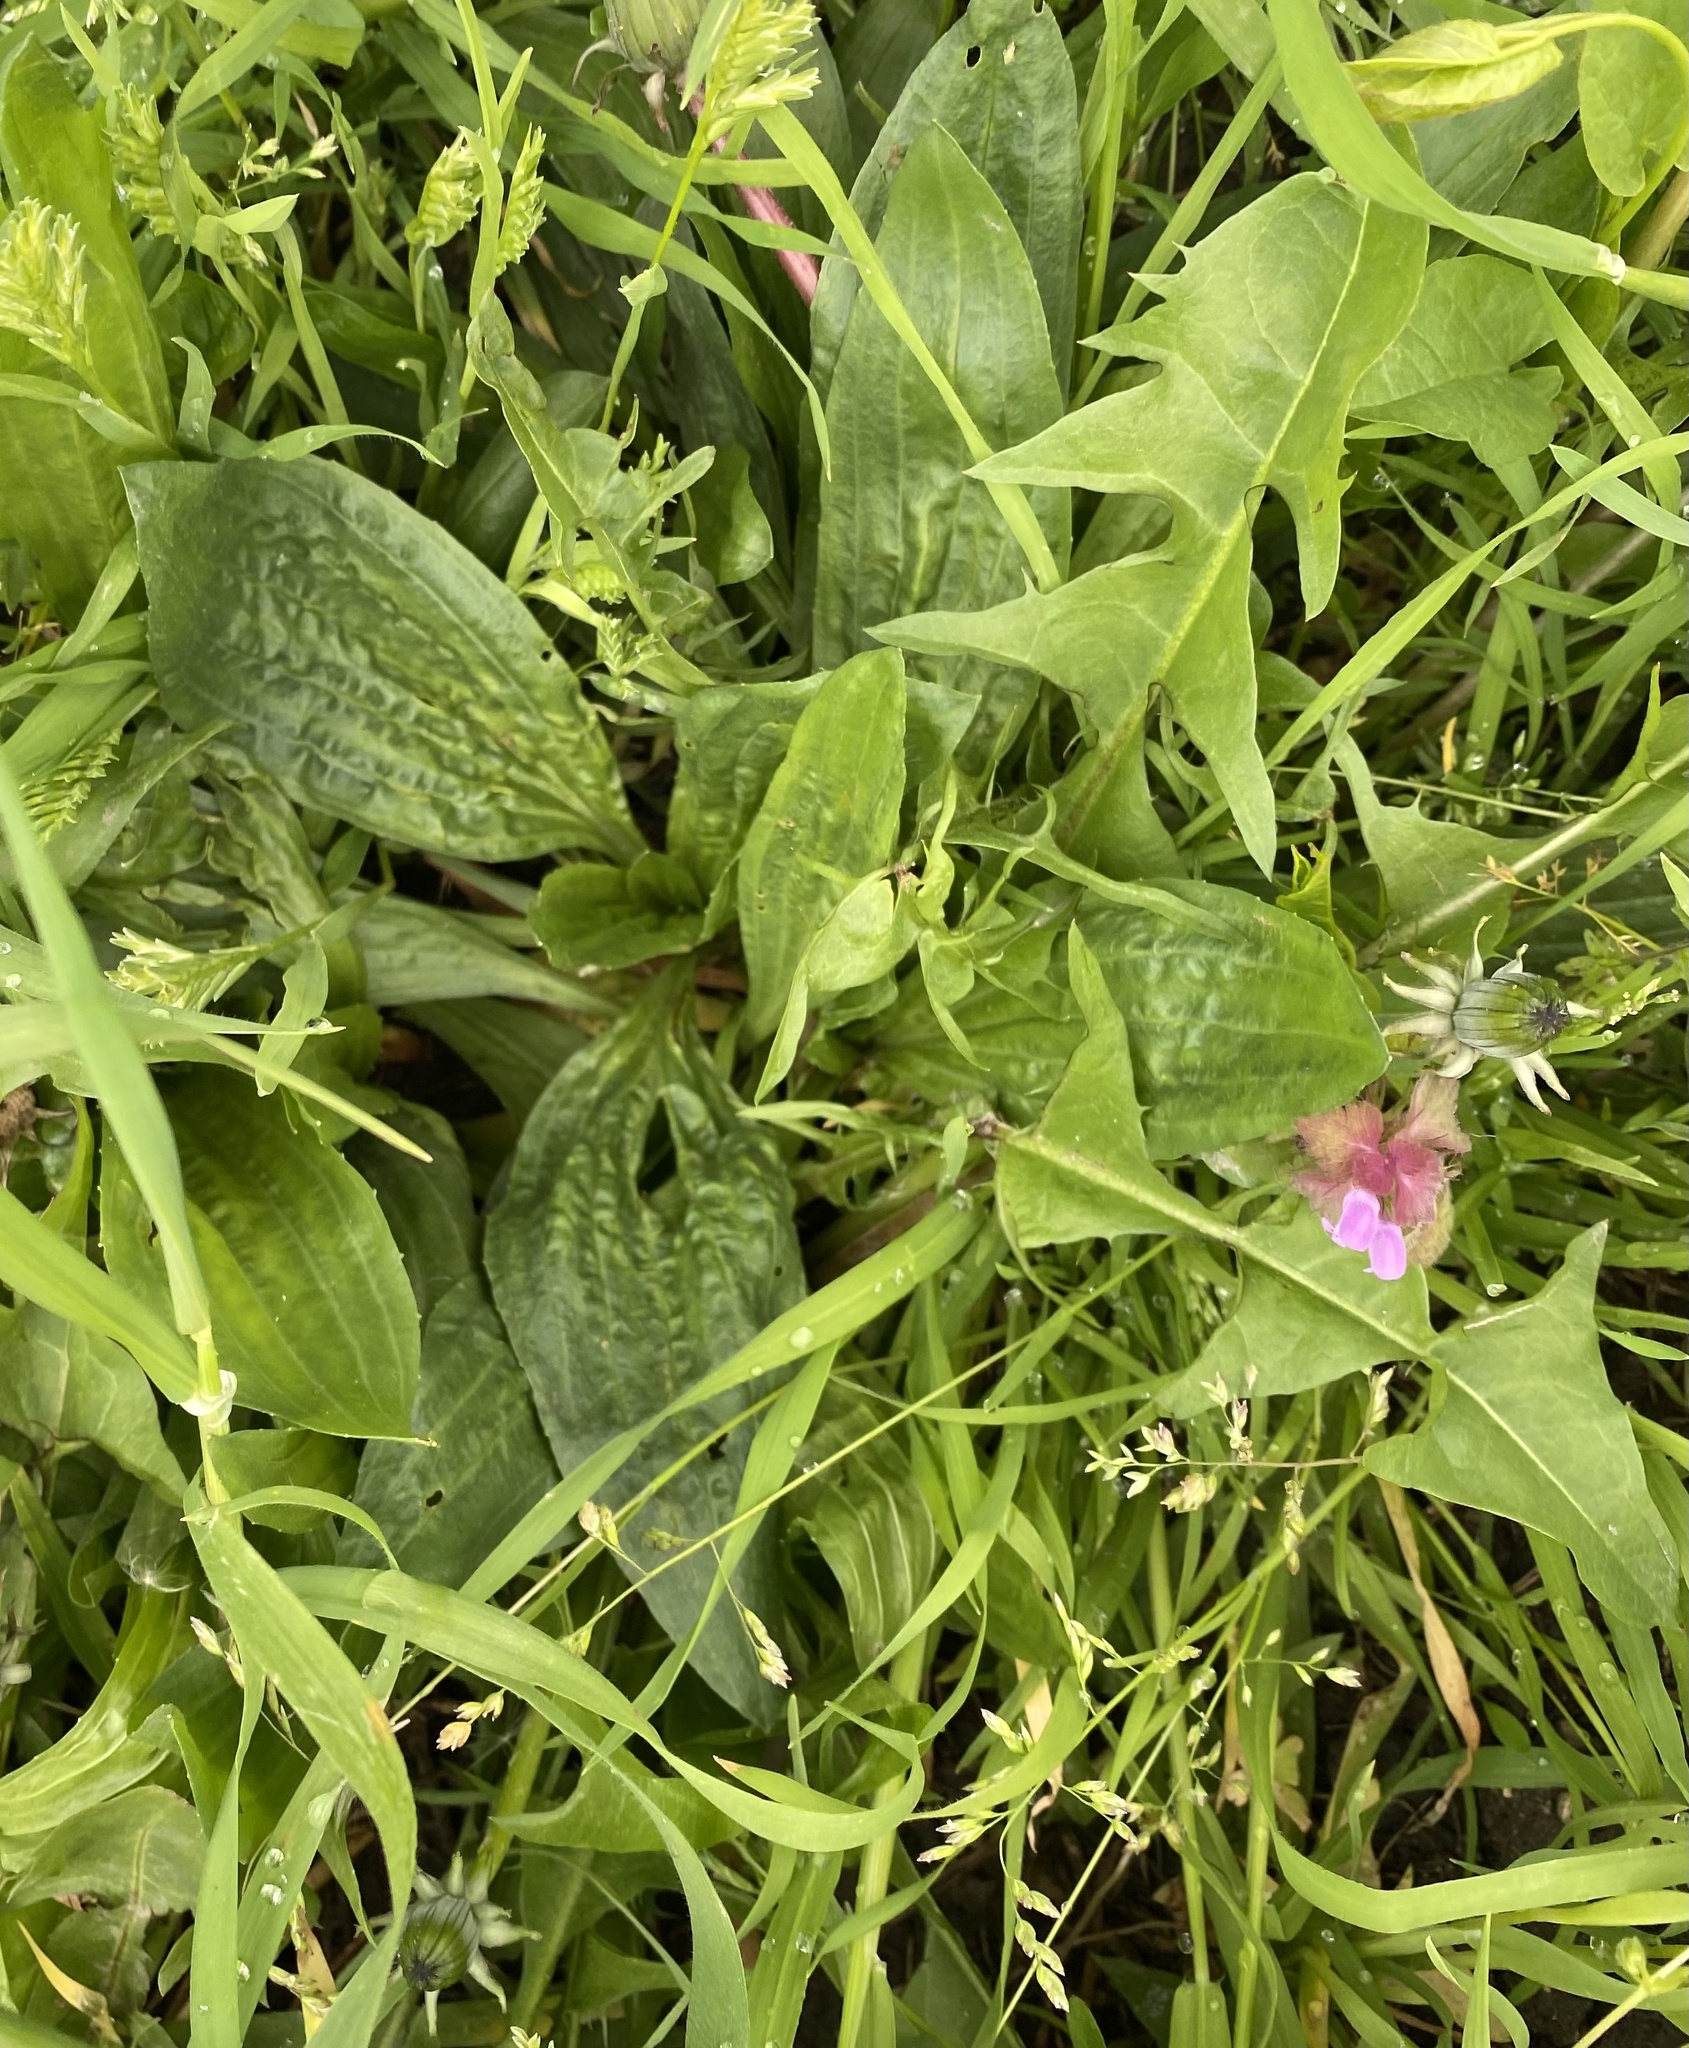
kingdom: Plantae
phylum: Tracheophyta
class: Magnoliopsida
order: Lamiales
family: Plantaginaceae
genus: Plantago
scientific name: Plantago lanceolata
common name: Ribwort plantain
